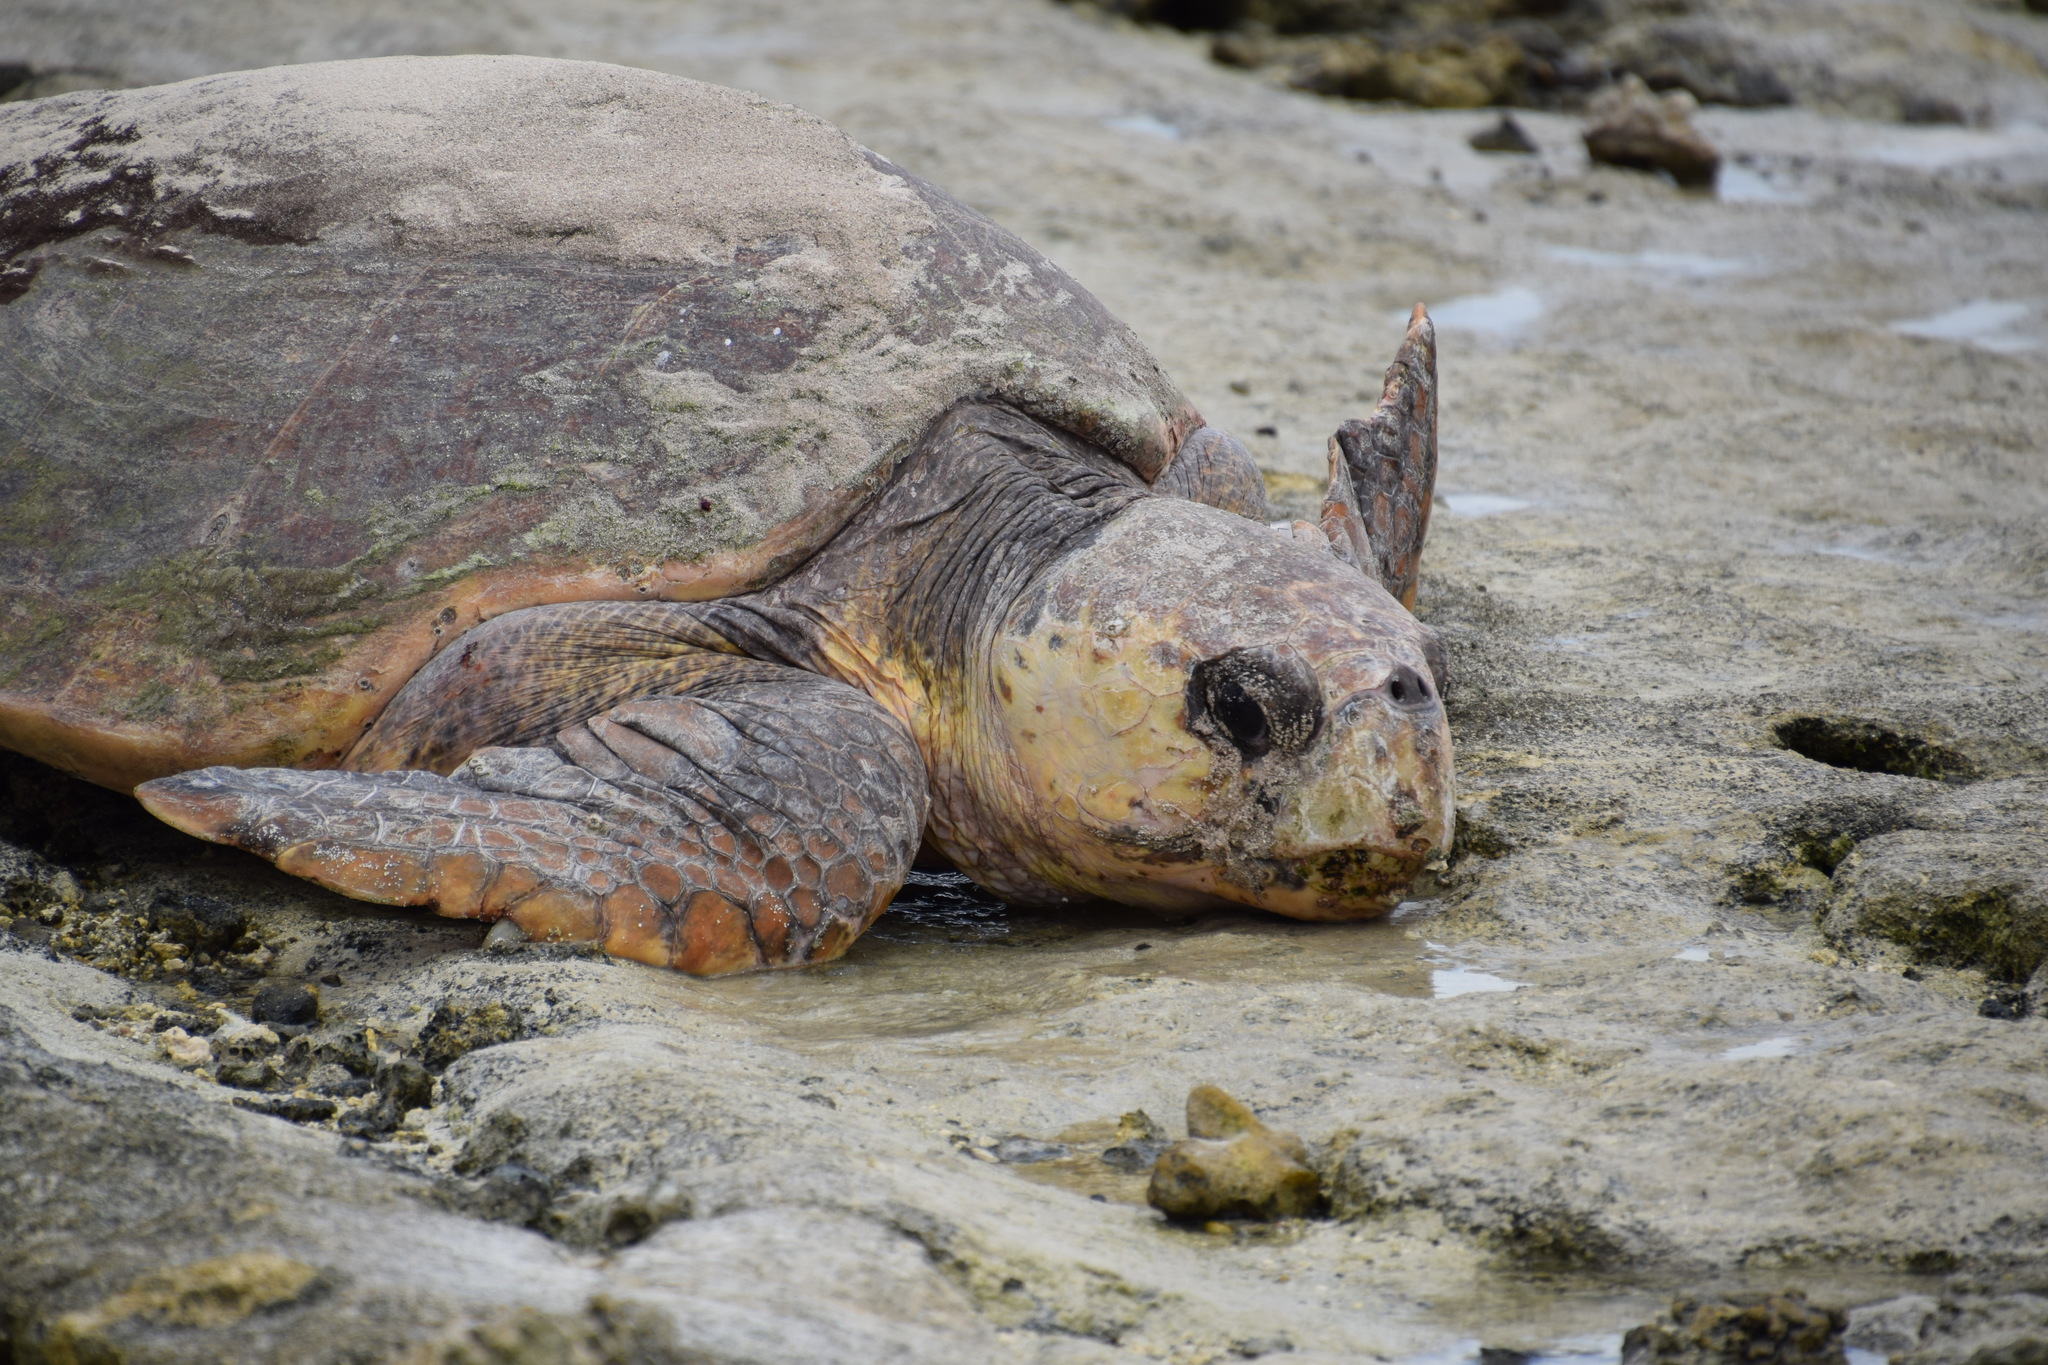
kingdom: Animalia
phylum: Chordata
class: Testudines
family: Cheloniidae
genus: Caretta
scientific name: Caretta caretta
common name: Loggerhead sea turtle
